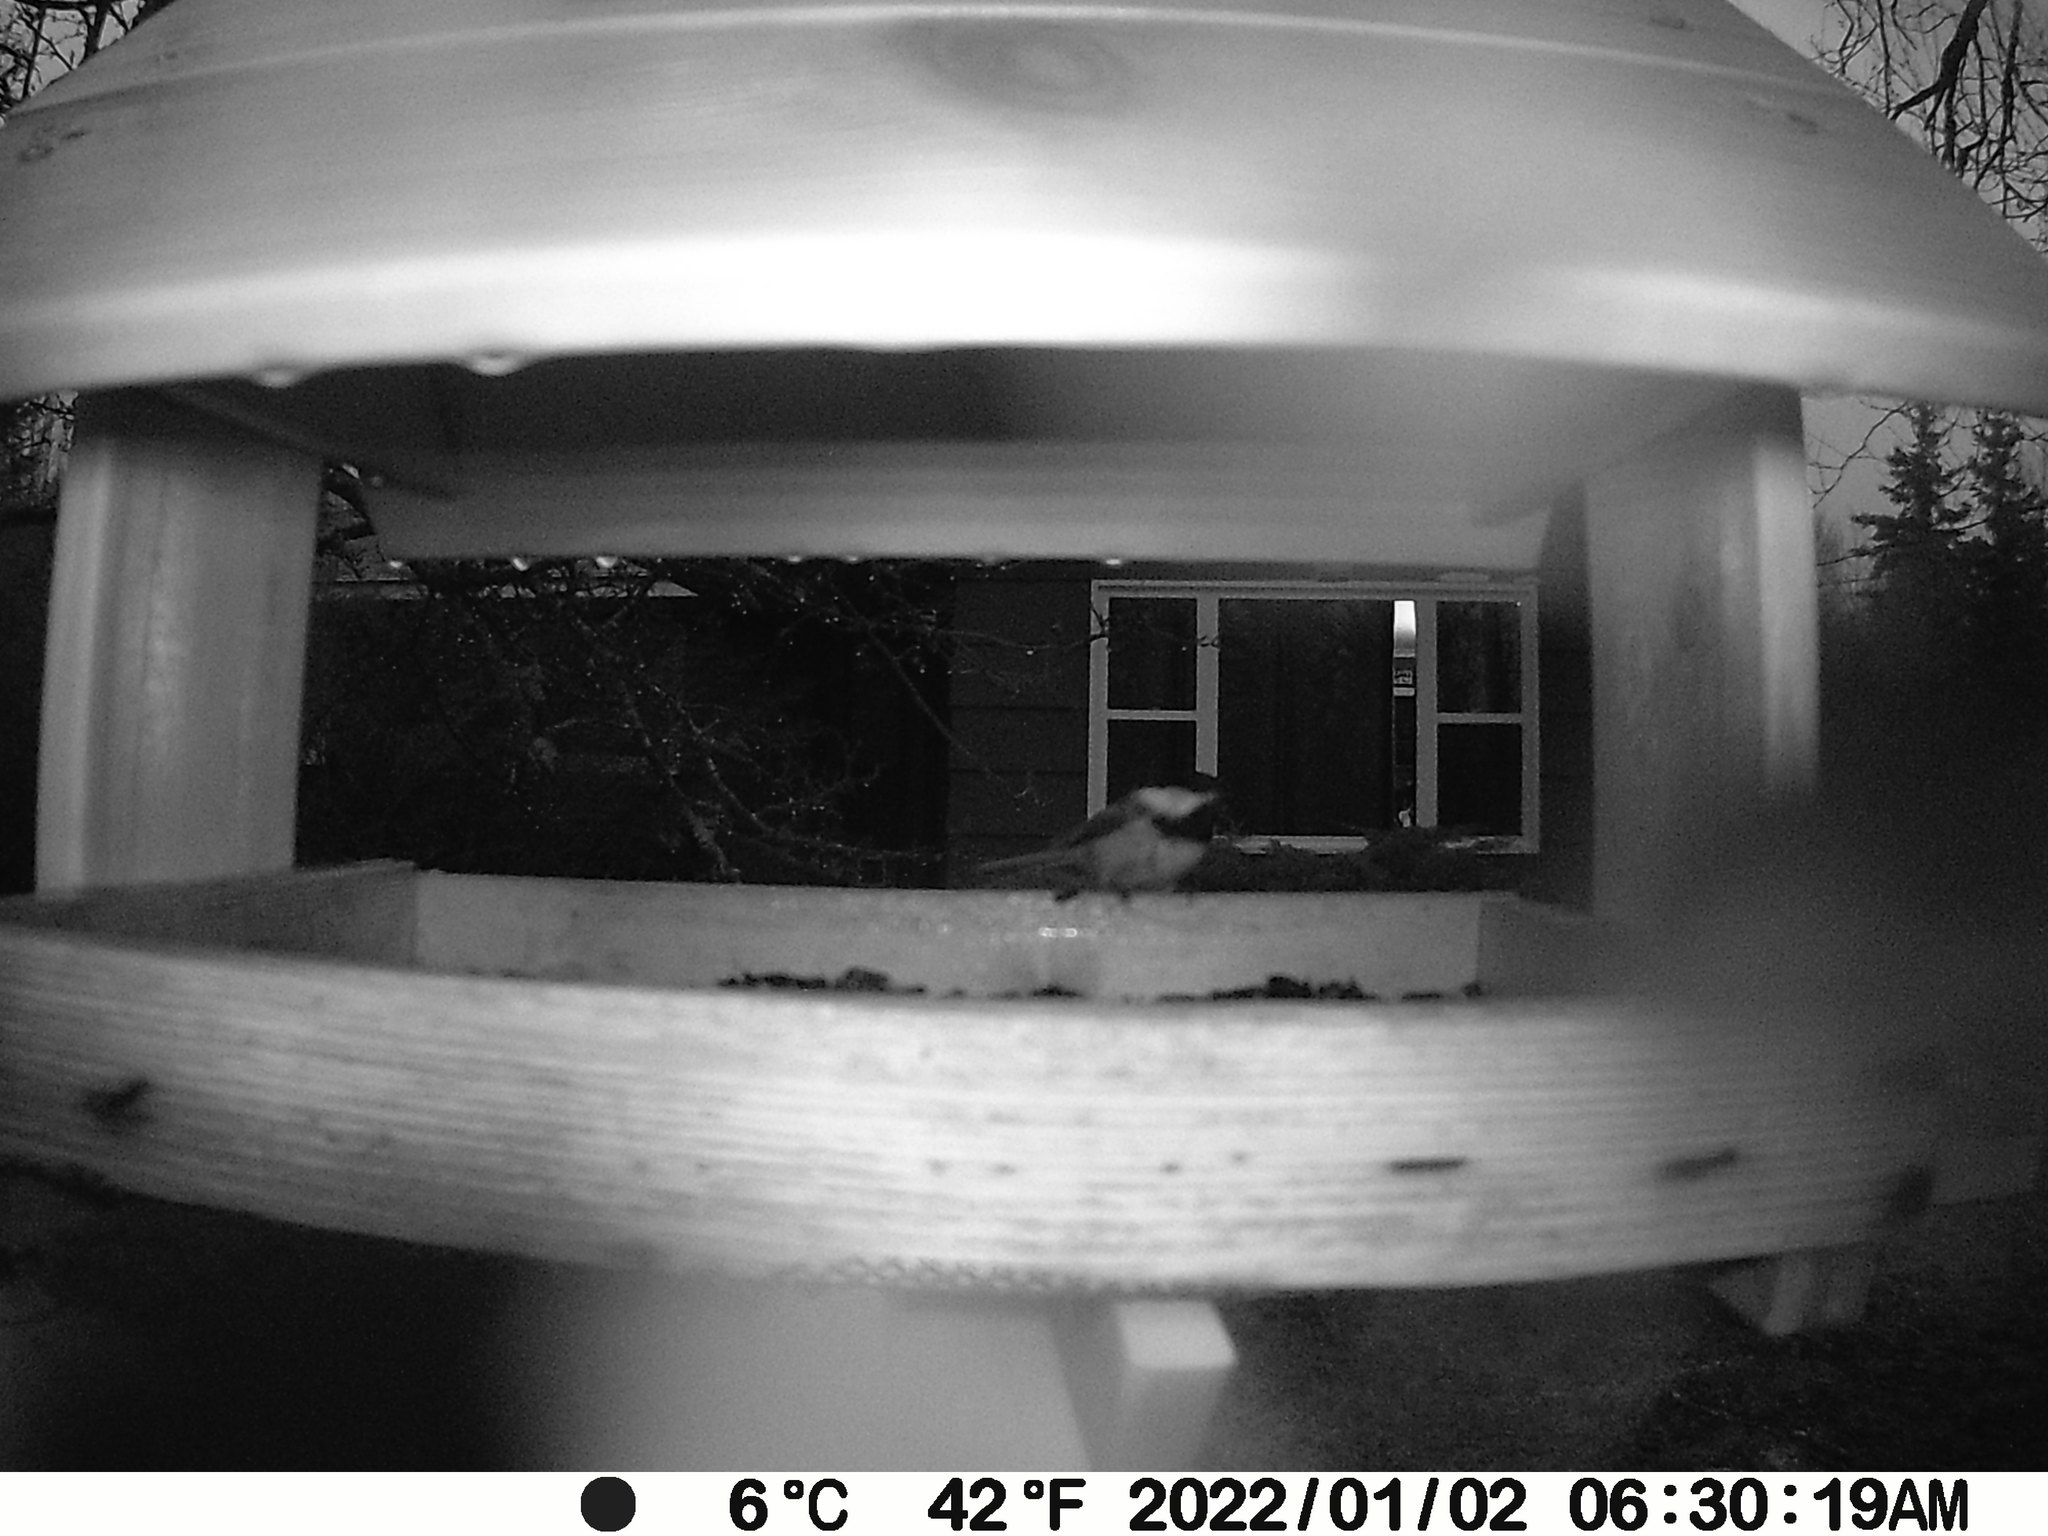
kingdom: Animalia
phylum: Chordata
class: Aves
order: Passeriformes
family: Paridae
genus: Poecile
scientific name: Poecile atricapillus
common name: Black-capped chickadee
